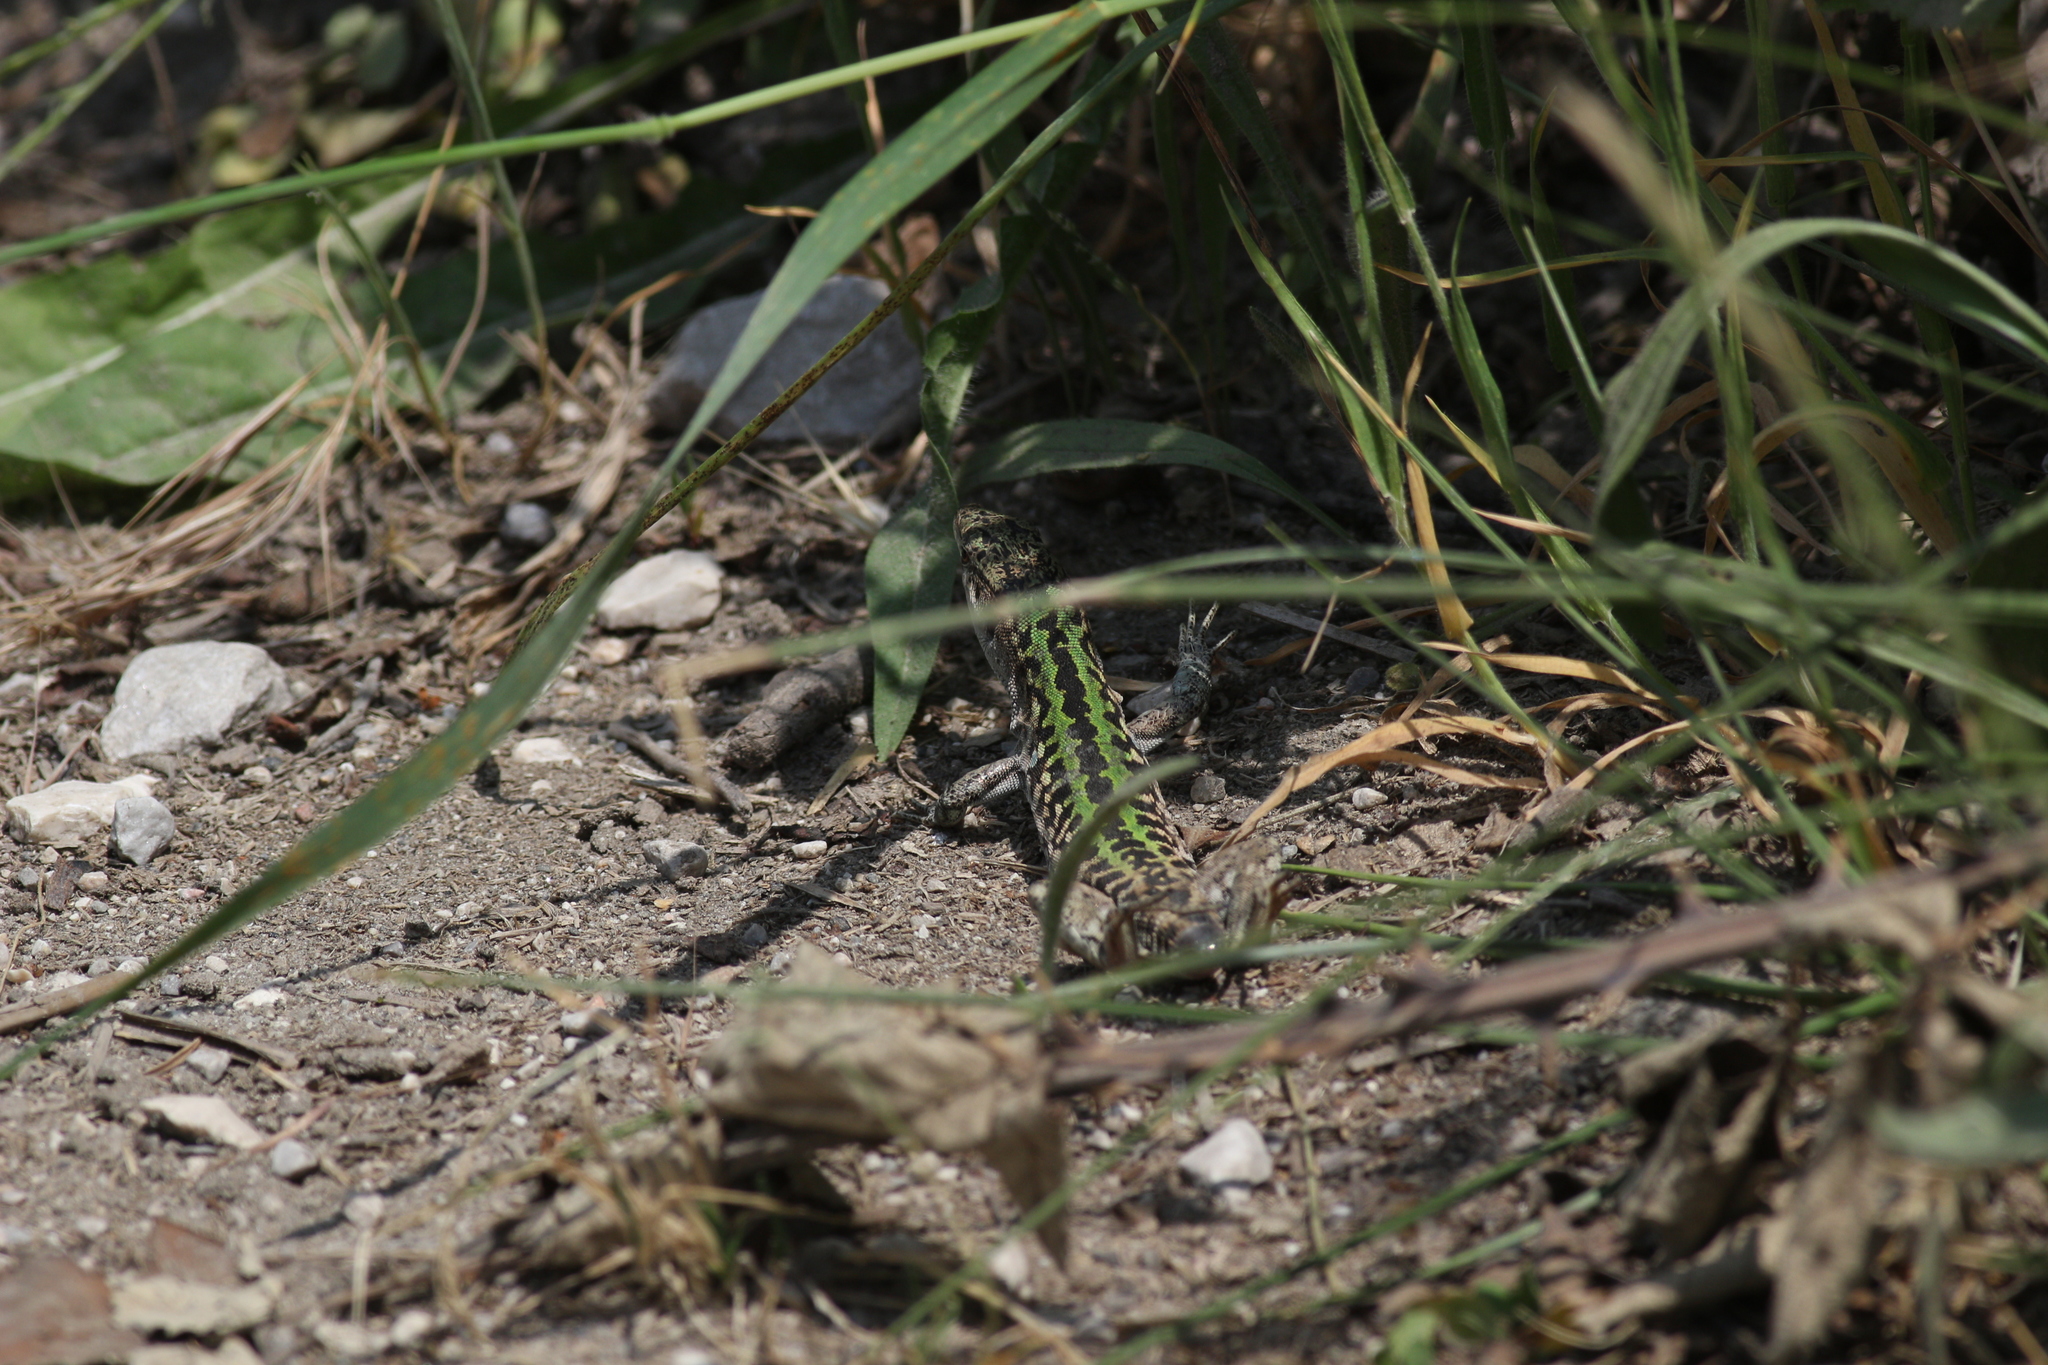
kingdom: Animalia
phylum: Chordata
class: Squamata
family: Lacertidae
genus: Podarcis
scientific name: Podarcis siculus
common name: Italian wall lizard
